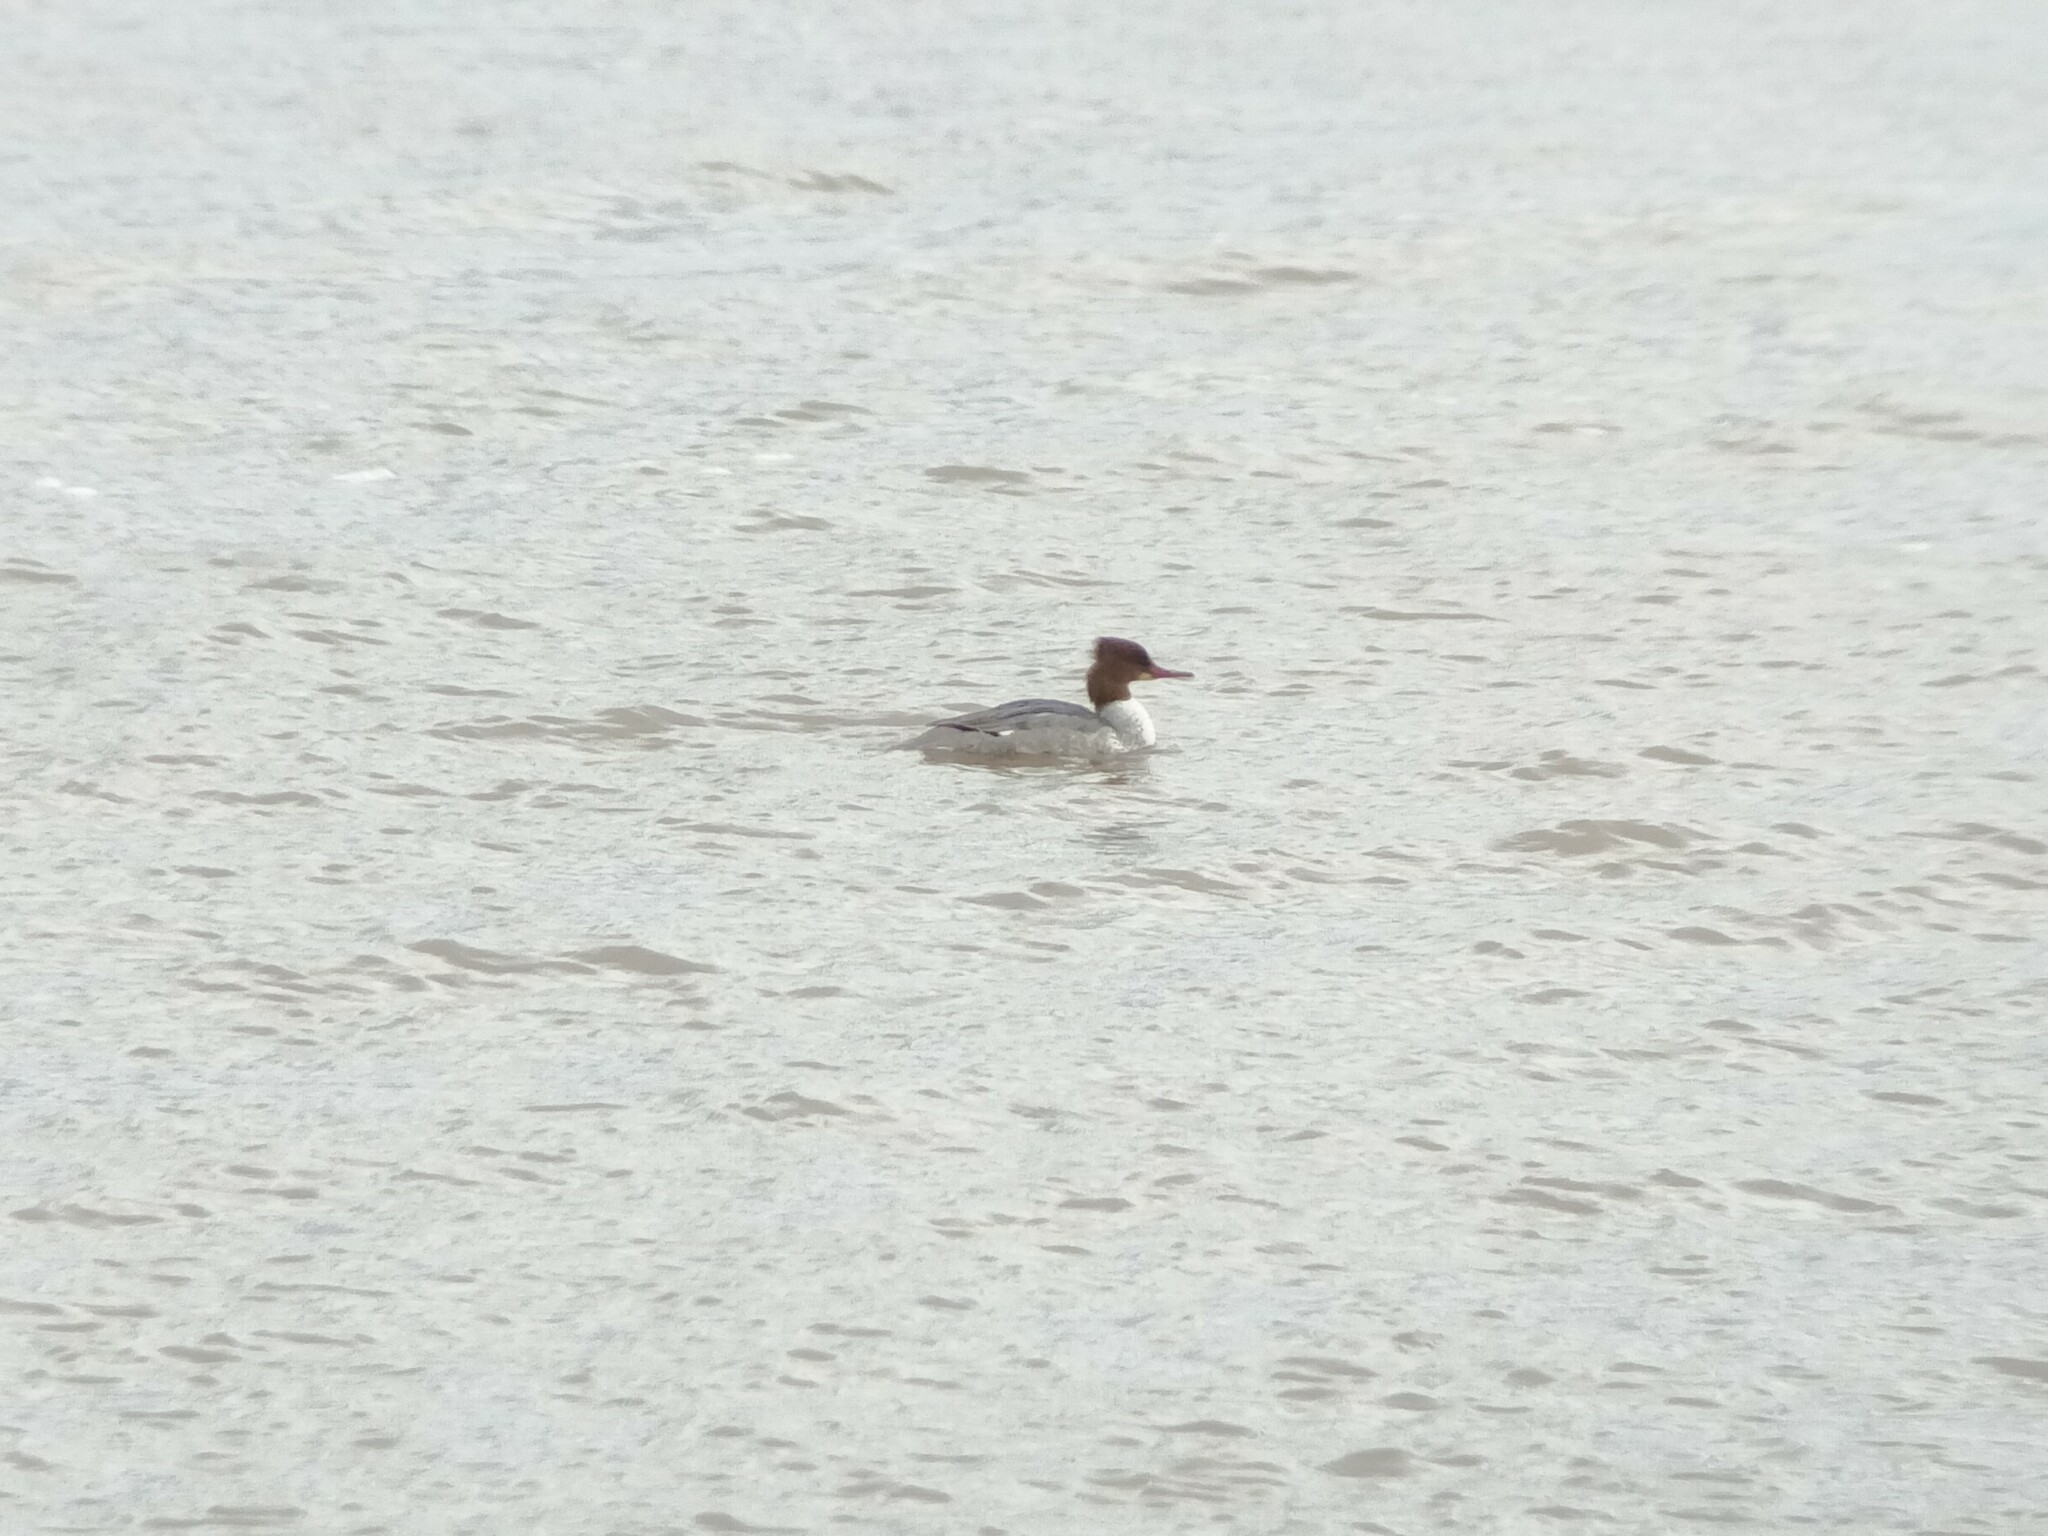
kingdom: Animalia
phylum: Chordata
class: Aves
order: Anseriformes
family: Anatidae
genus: Mergus
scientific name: Mergus merganser
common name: Common merganser
